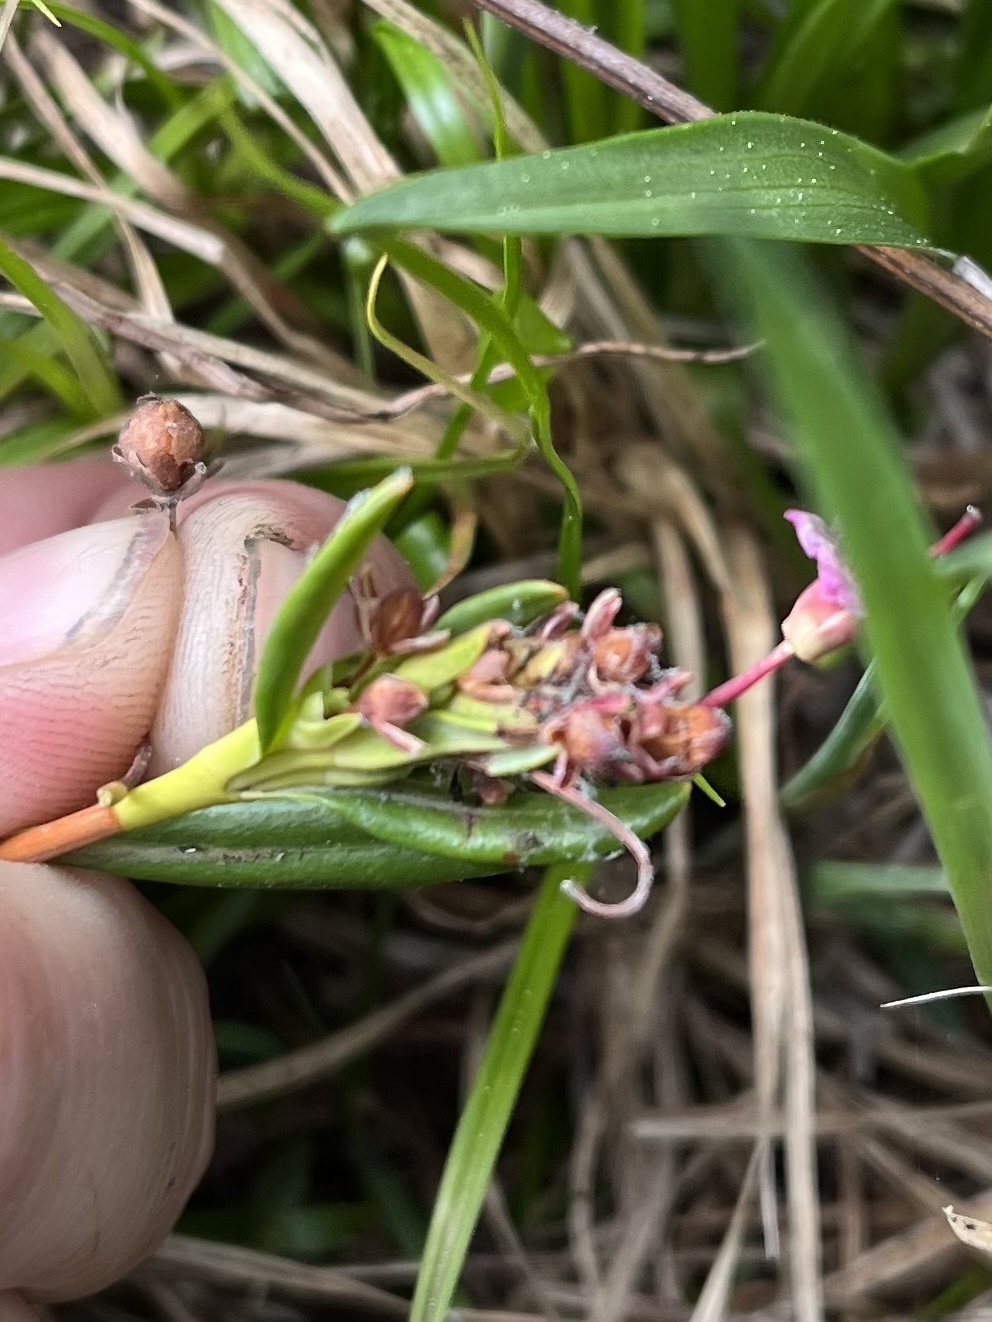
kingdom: Plantae
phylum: Tracheophyta
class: Magnoliopsida
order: Ericales
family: Ericaceae
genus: Kalmia
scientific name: Kalmia microphylla
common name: Alpine bog laurel
